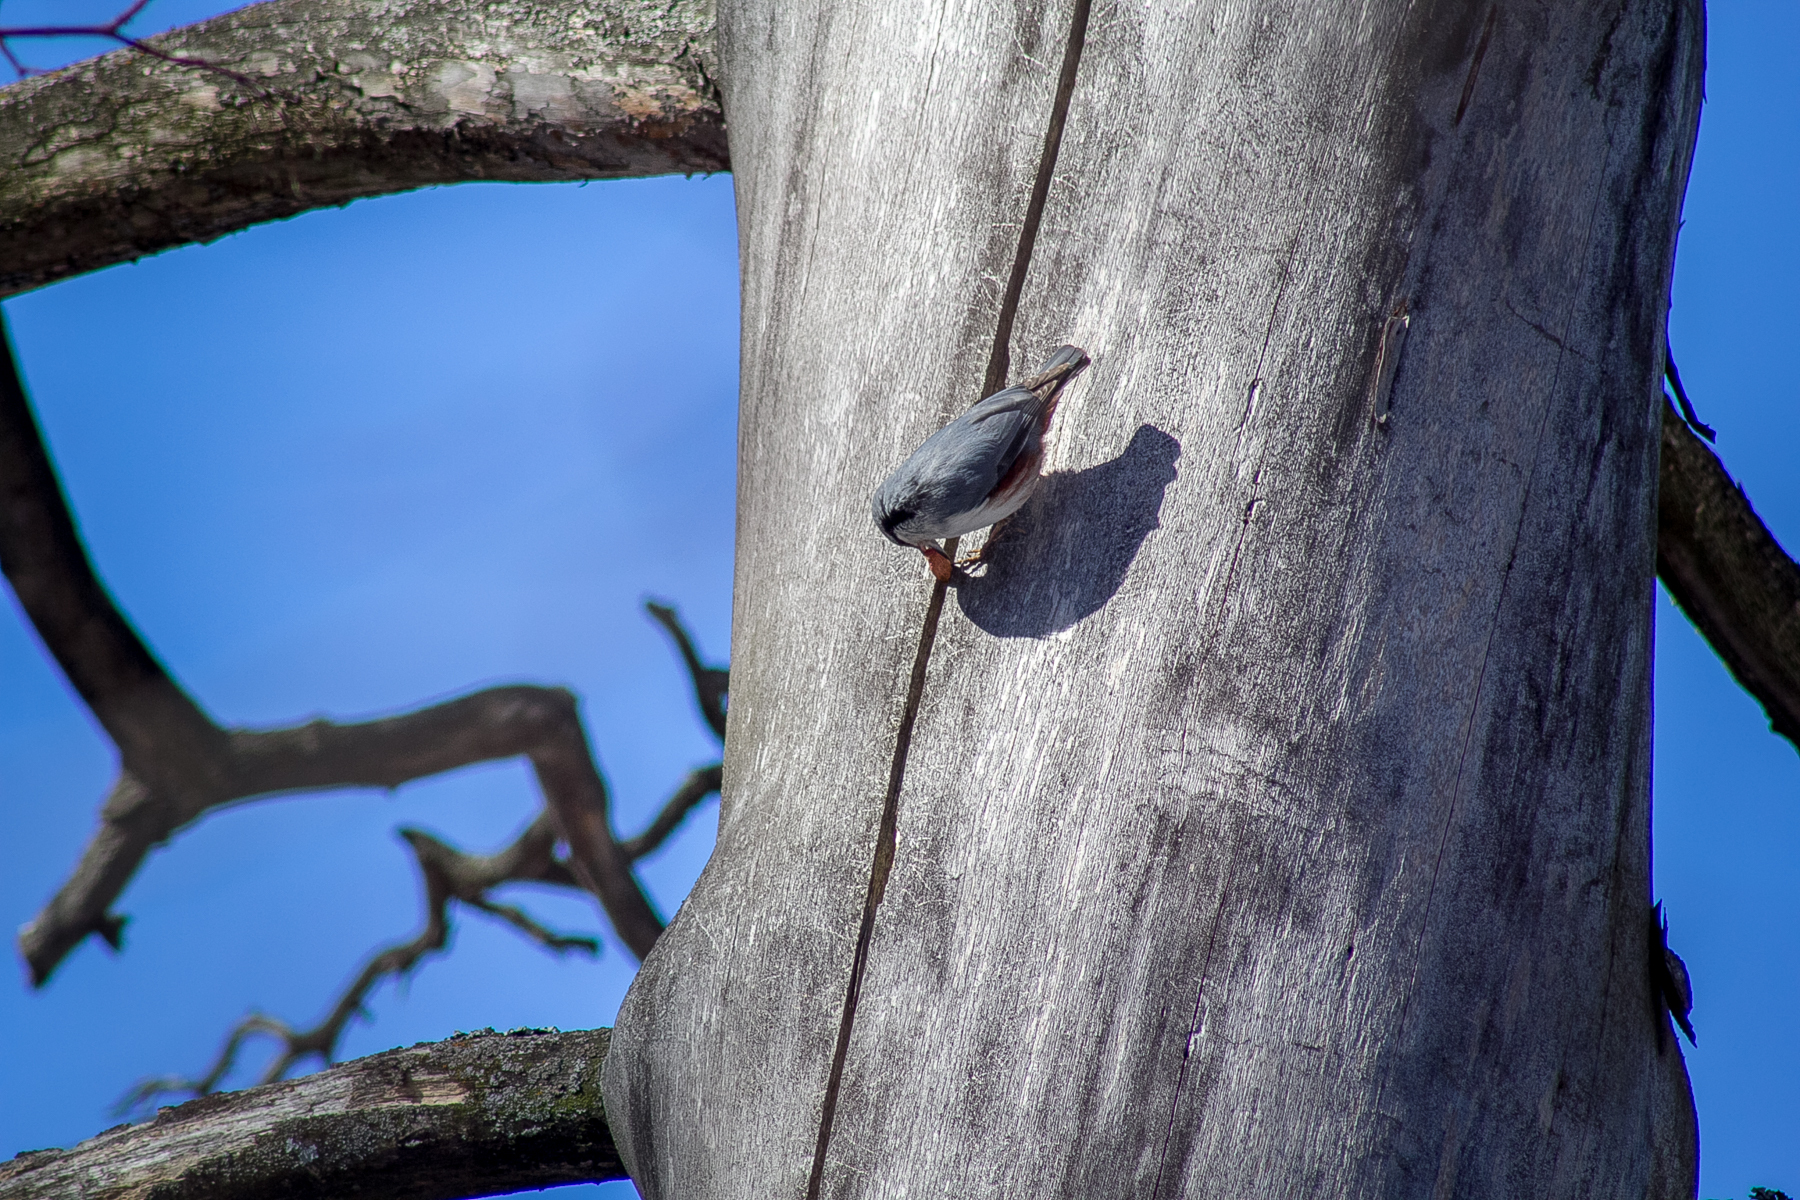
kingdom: Animalia
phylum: Chordata
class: Aves
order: Passeriformes
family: Sittidae
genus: Sitta
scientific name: Sitta europaea
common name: Eurasian nuthatch
